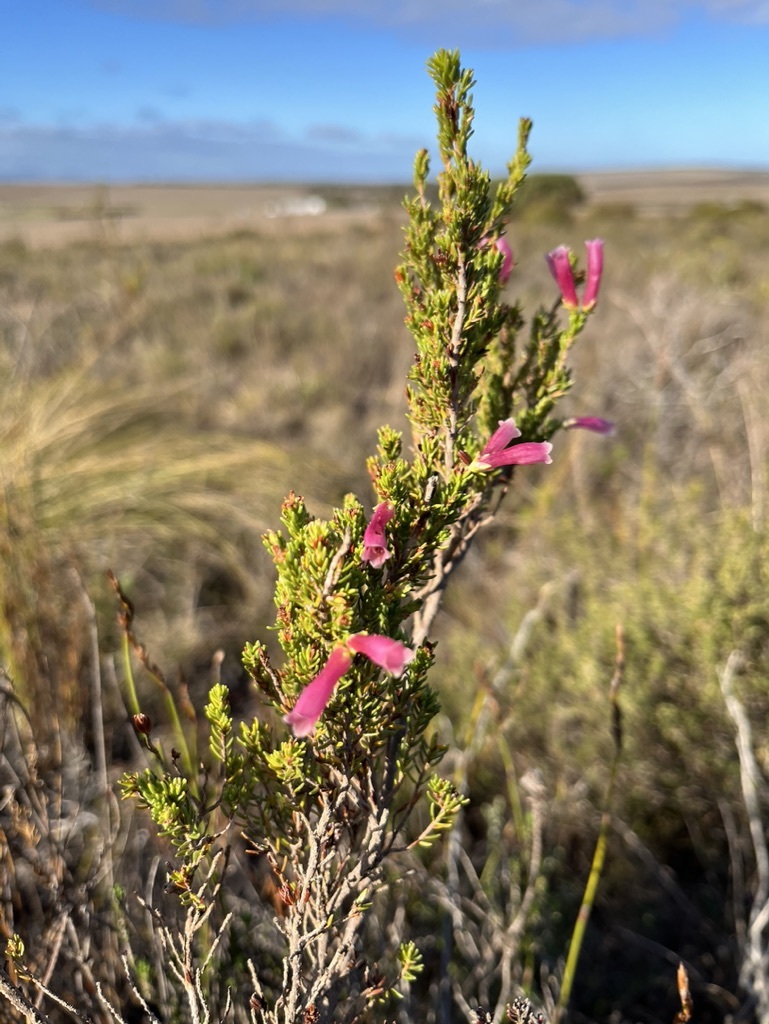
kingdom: Plantae
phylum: Tracheophyta
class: Magnoliopsida
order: Ericales
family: Ericaceae
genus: Erica
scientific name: Erica discolor
